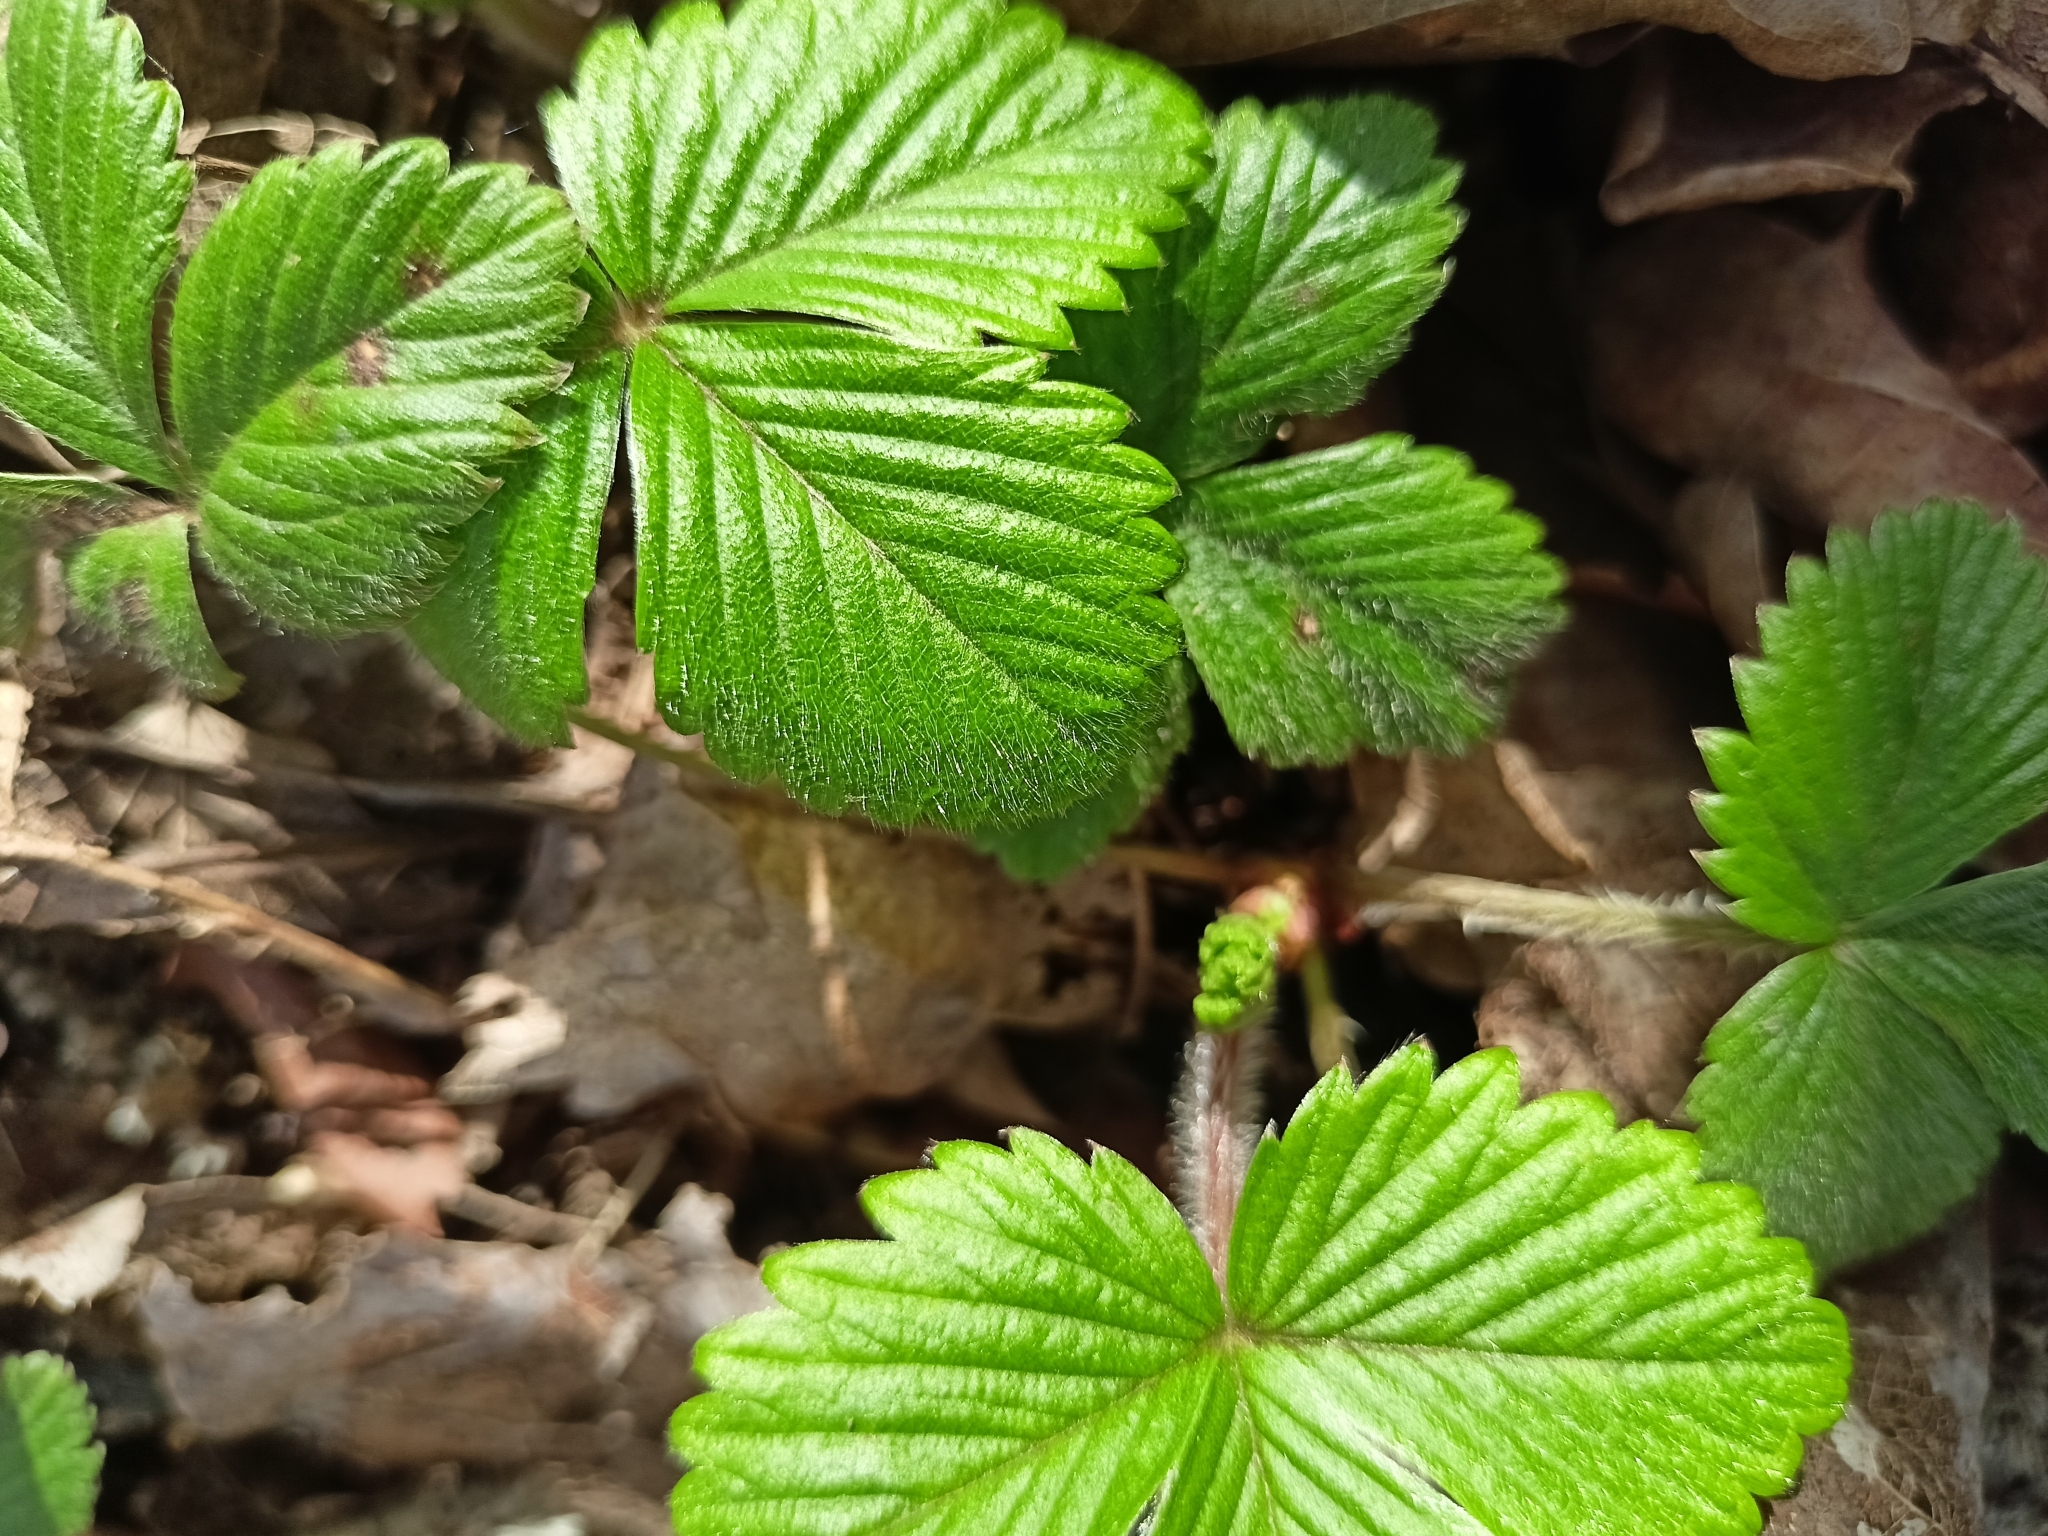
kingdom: Plantae
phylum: Tracheophyta
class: Magnoliopsida
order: Rosales
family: Rosaceae
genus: Fragaria
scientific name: Fragaria vesca
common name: Wild strawberry
